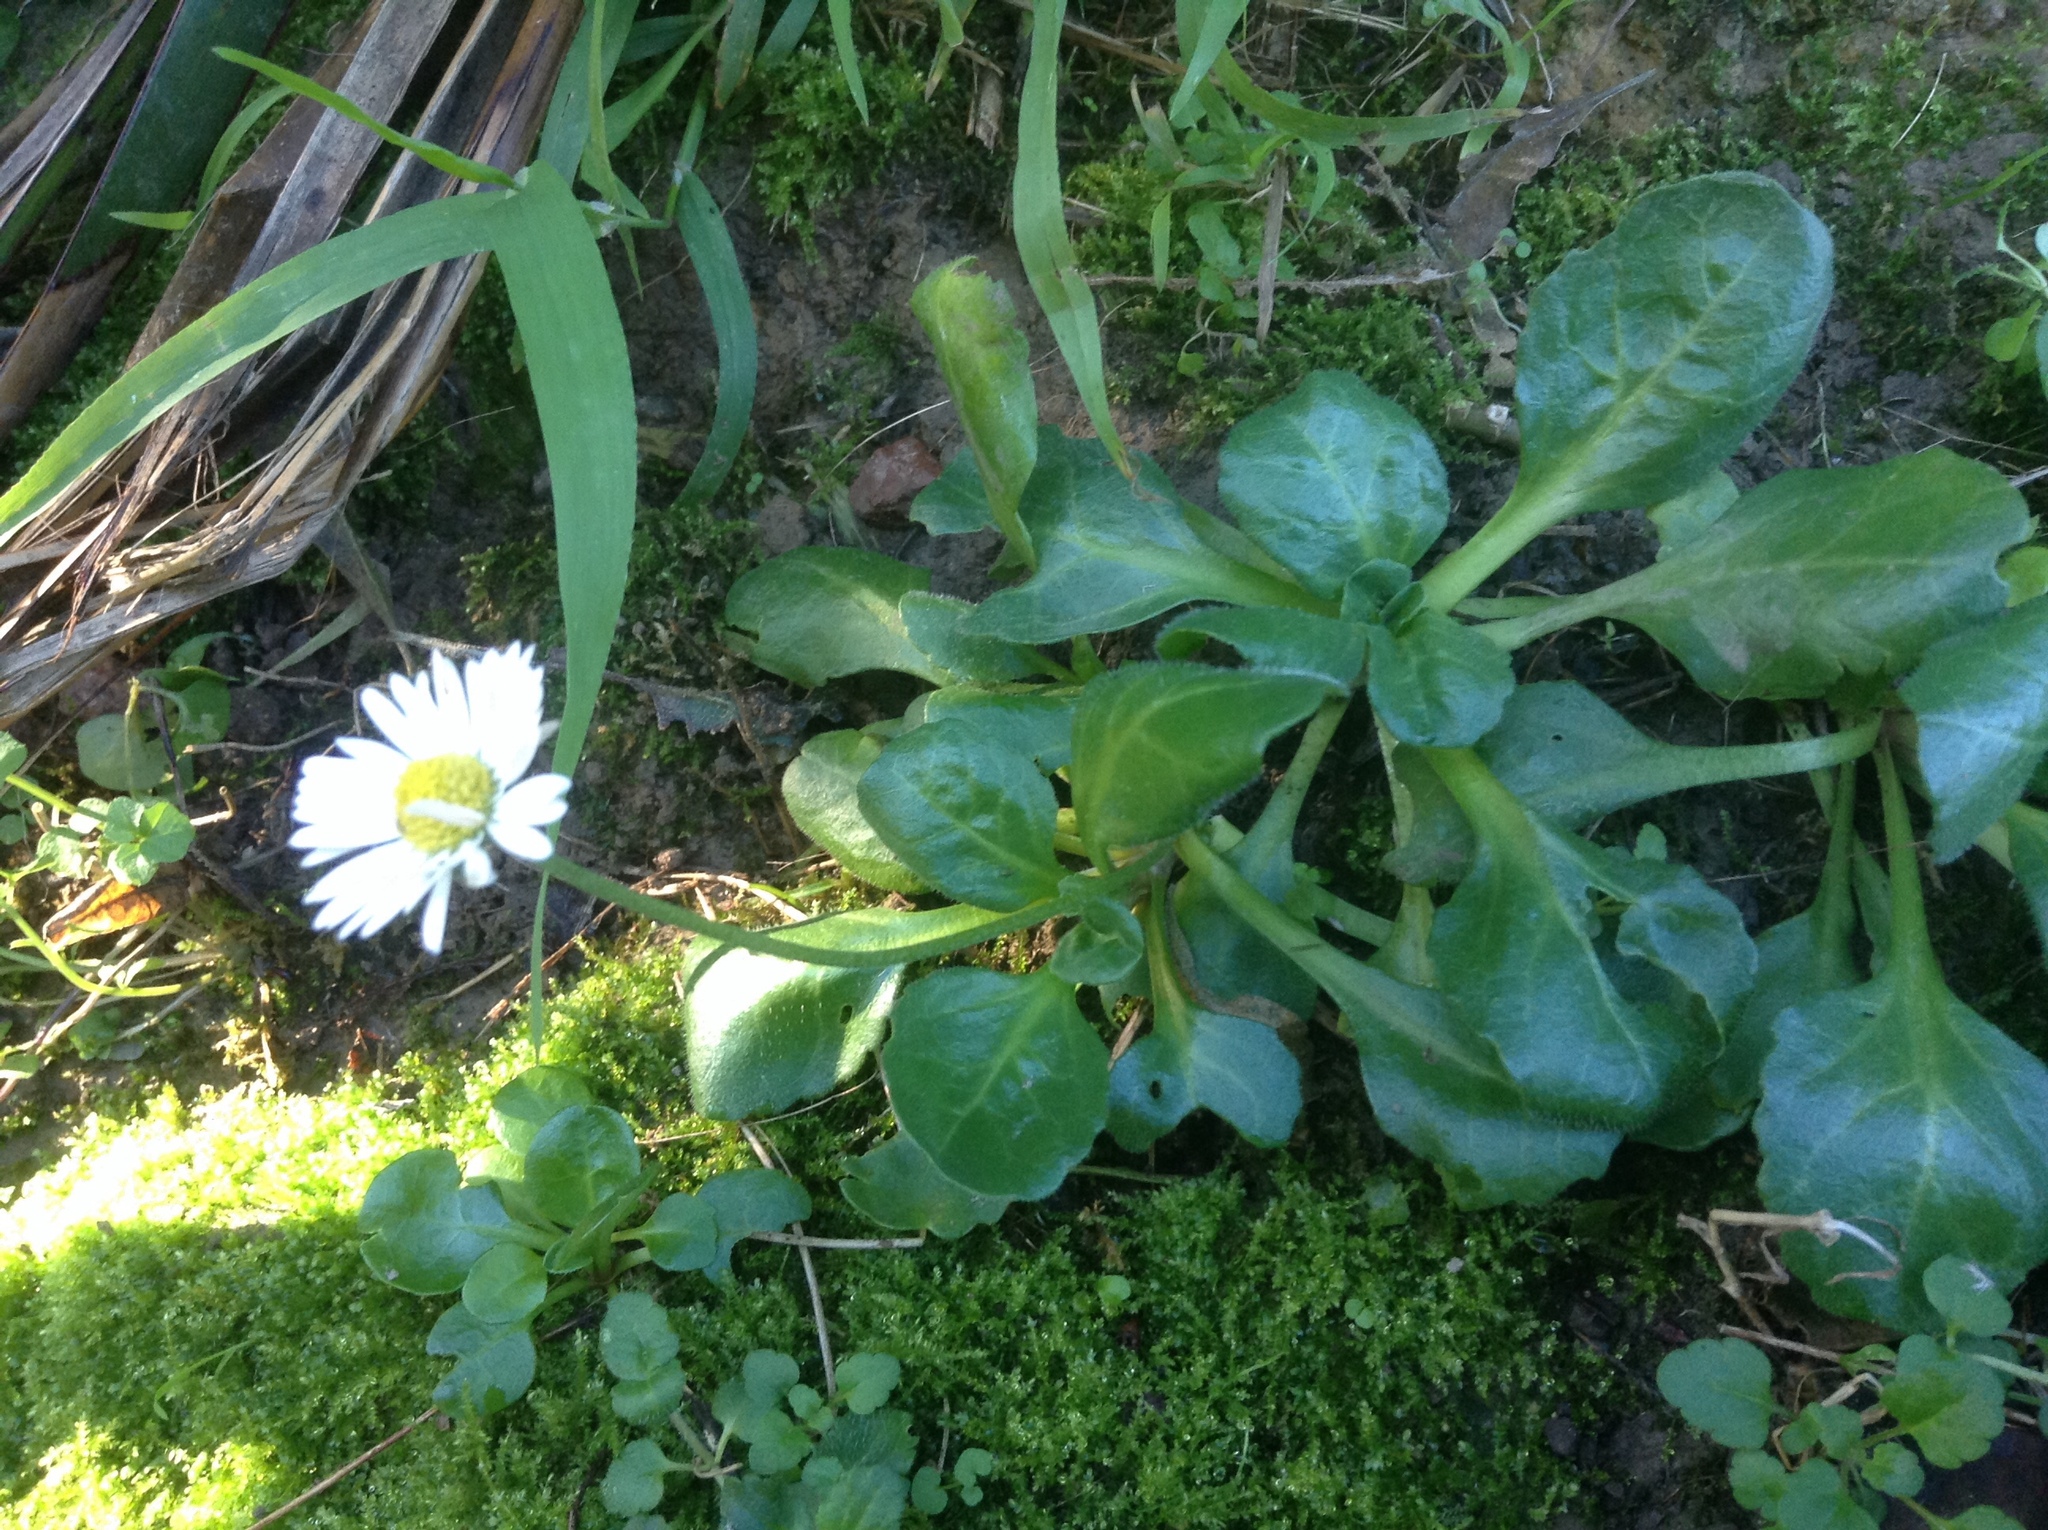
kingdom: Plantae
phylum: Tracheophyta
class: Magnoliopsida
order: Asterales
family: Asteraceae
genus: Bellis
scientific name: Bellis perennis
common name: Lawndaisy
